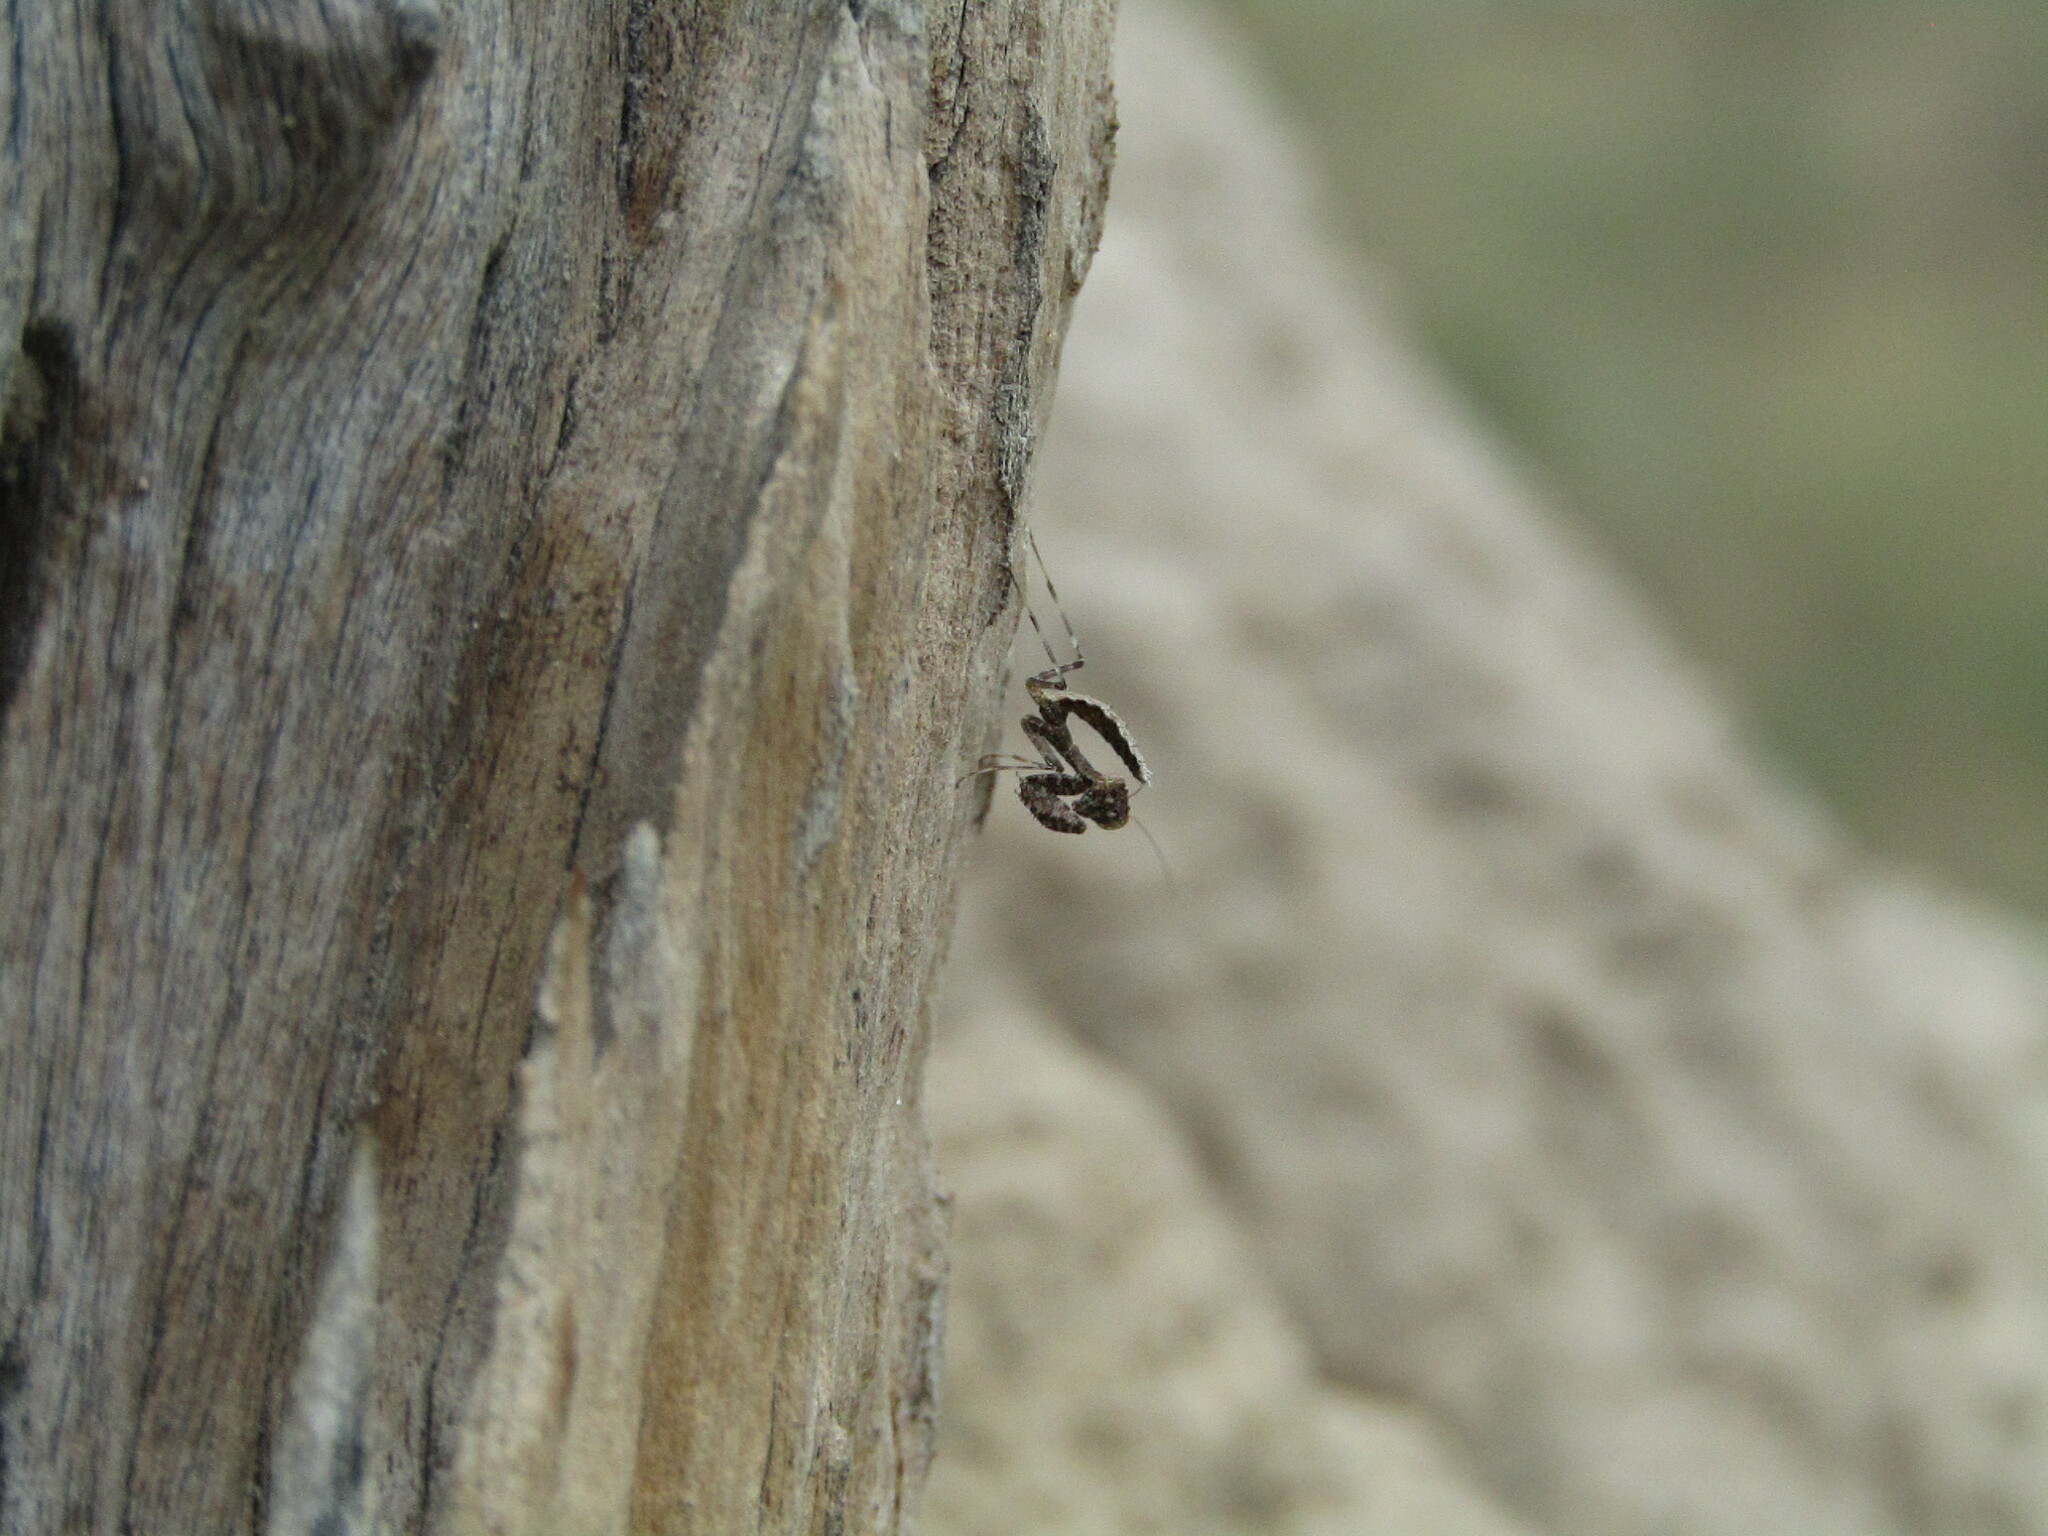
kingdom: Animalia
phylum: Arthropoda
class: Insecta
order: Mantodea
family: Chroicopteridae
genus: Dystacta
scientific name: Dystacta alticeps
